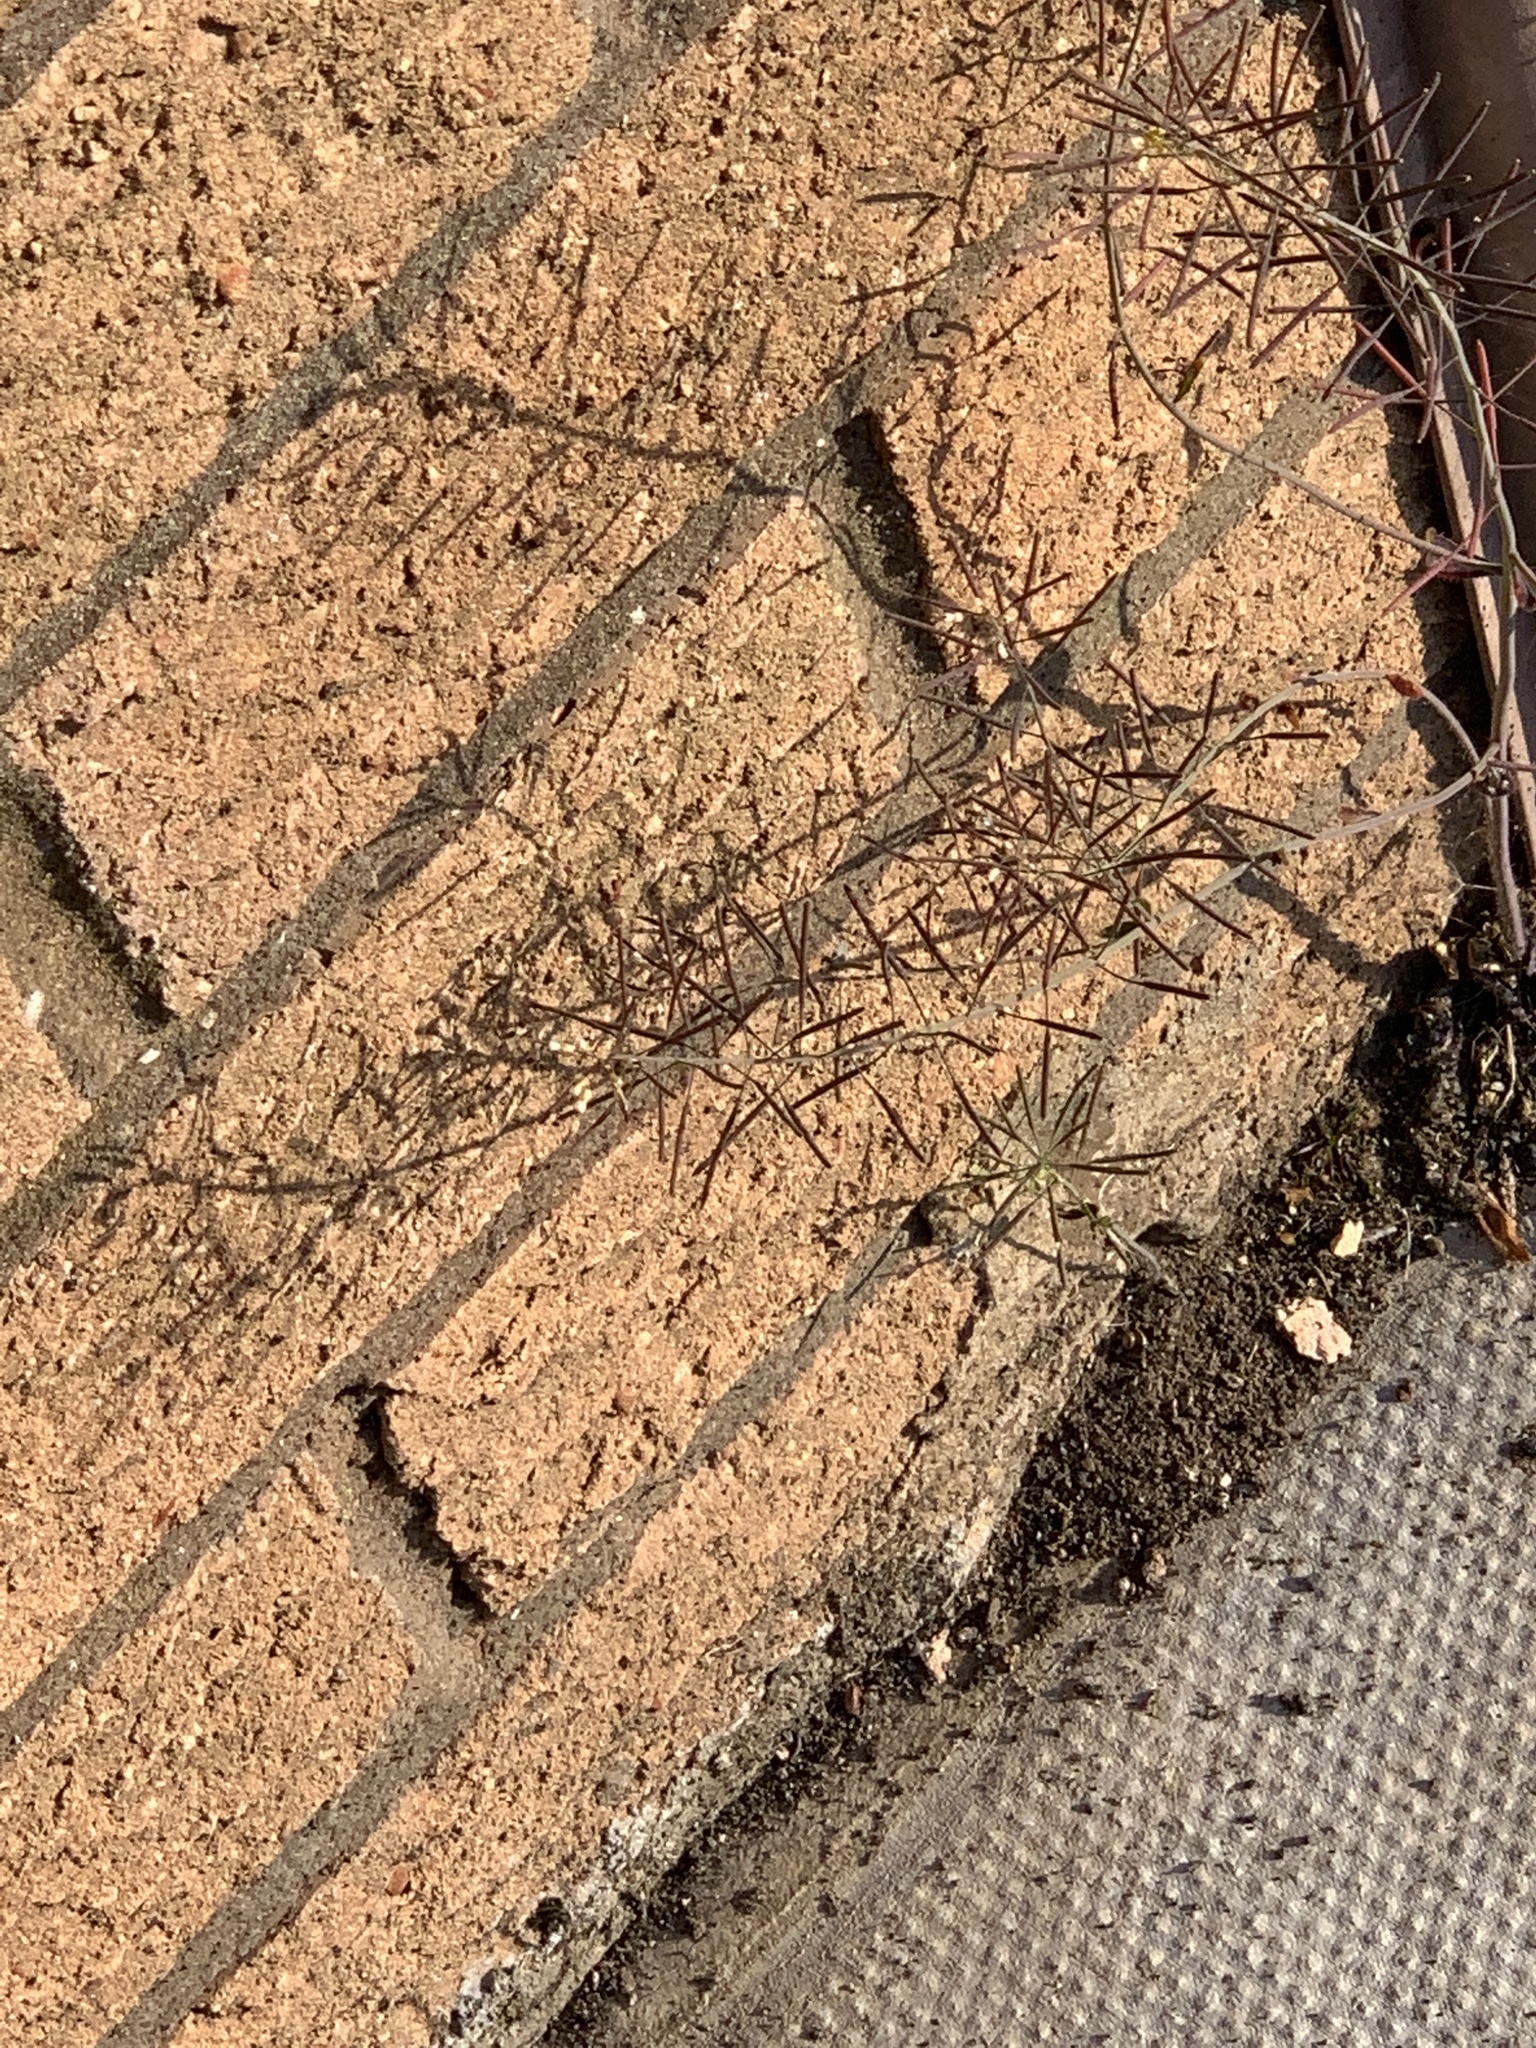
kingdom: Plantae
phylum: Tracheophyta
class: Magnoliopsida
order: Brassicales
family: Brassicaceae
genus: Arabidopsis
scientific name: Arabidopsis thaliana
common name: Thale cress
